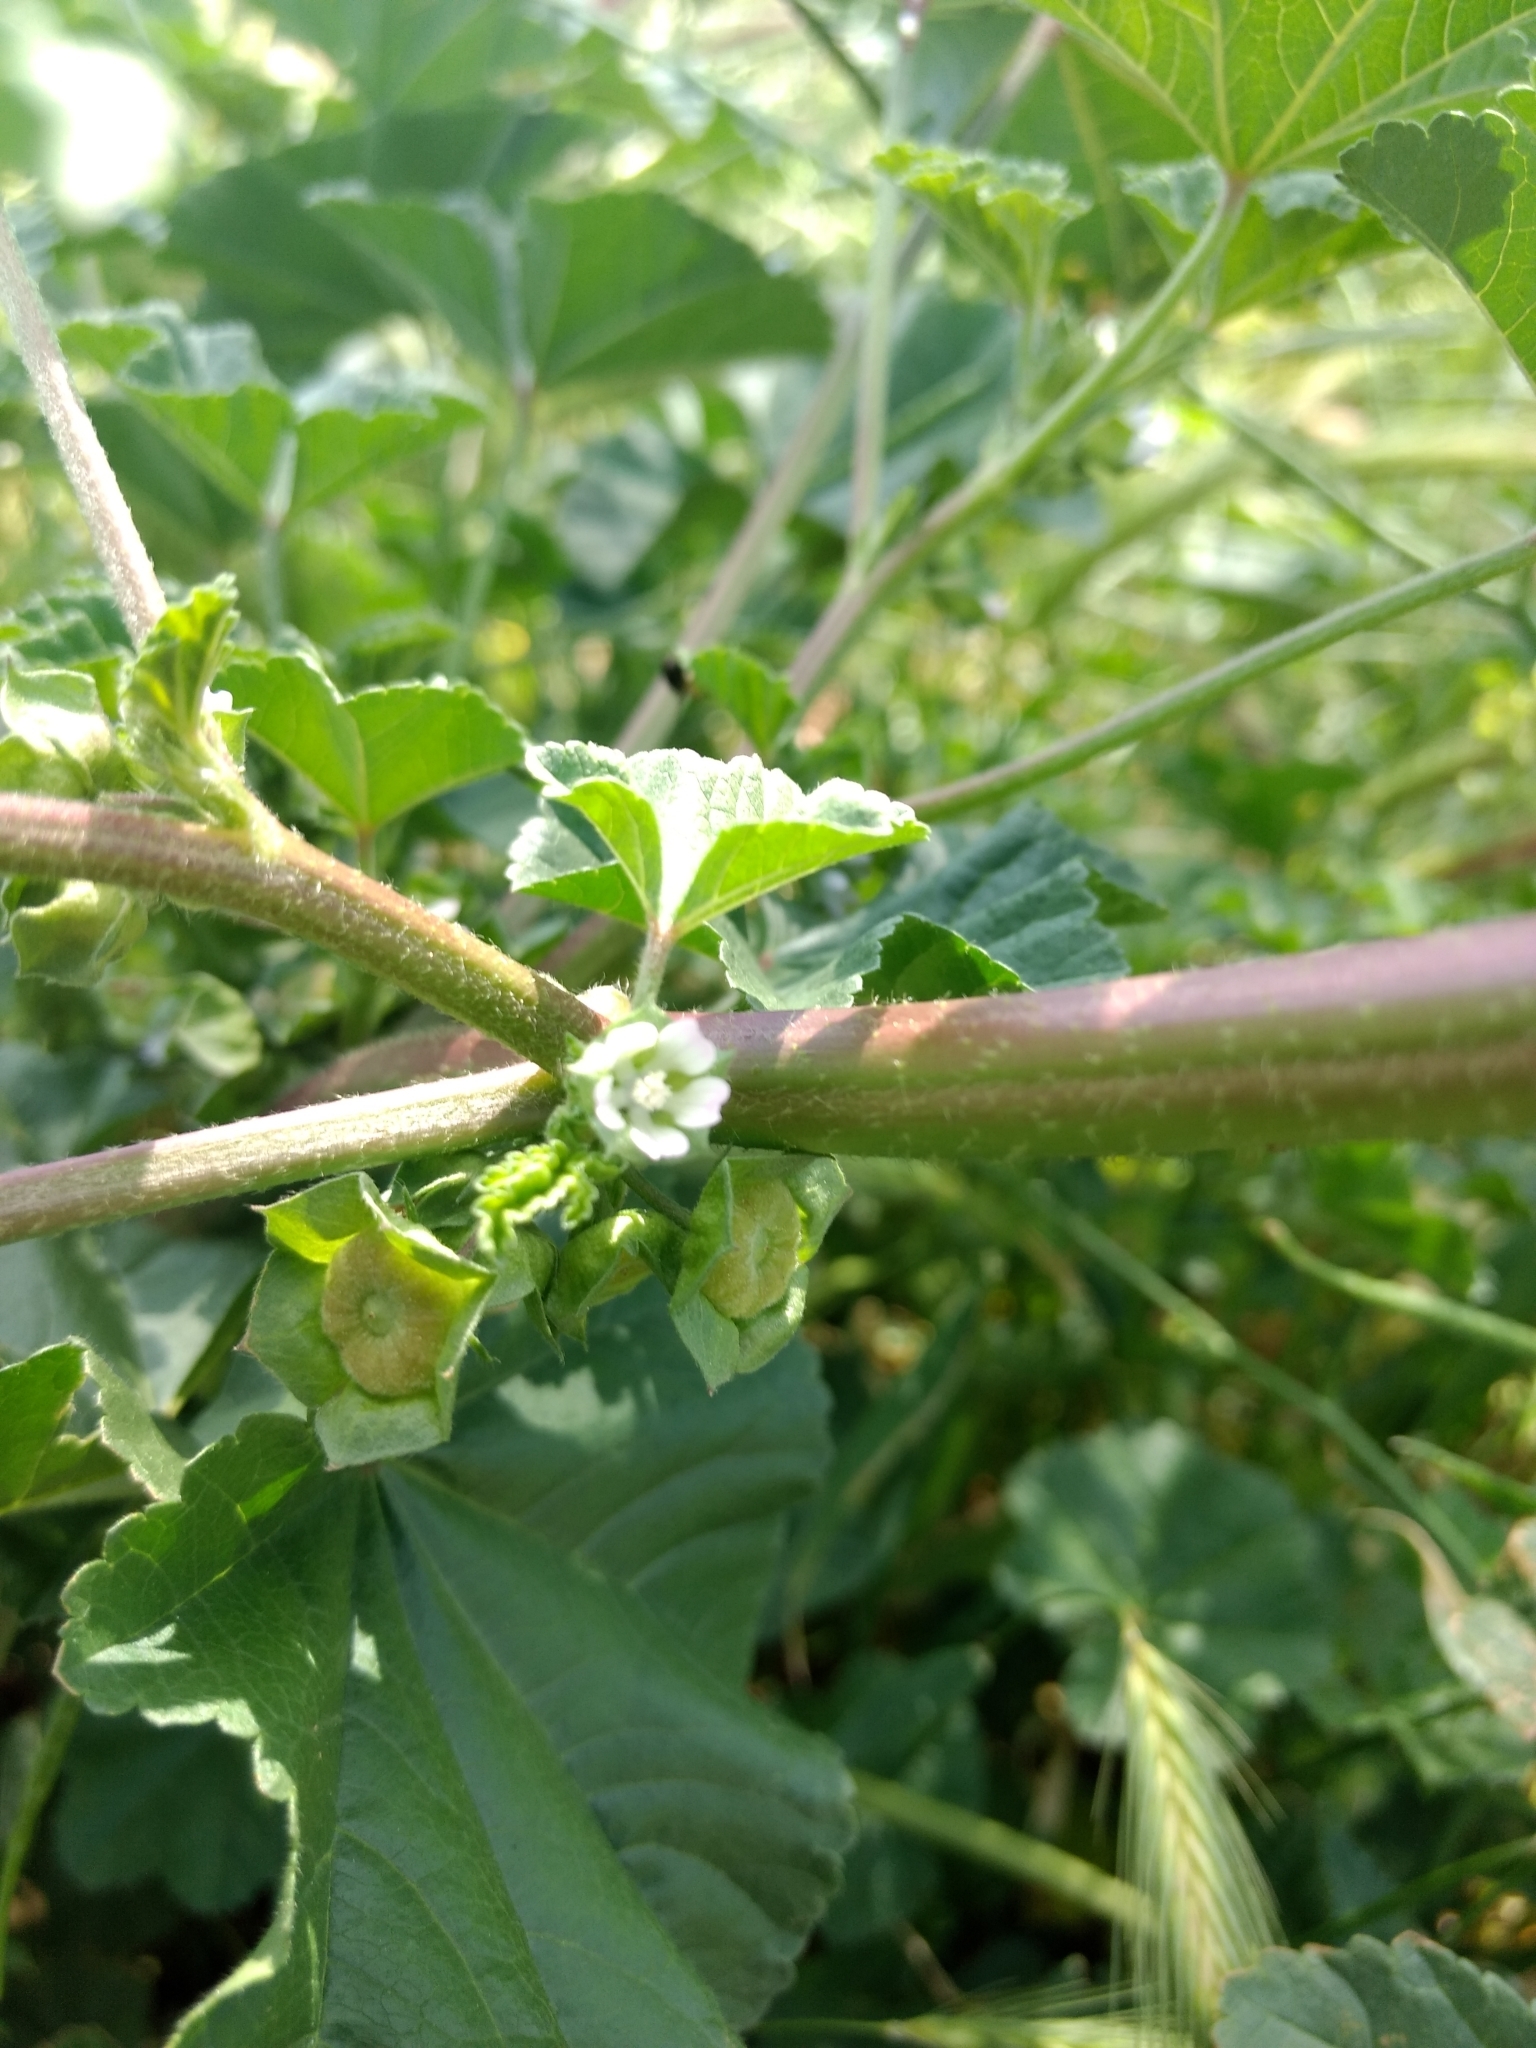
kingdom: Plantae
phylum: Tracheophyta
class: Magnoliopsida
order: Malvales
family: Malvaceae
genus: Malva
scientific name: Malva parviflora
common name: Least mallow
